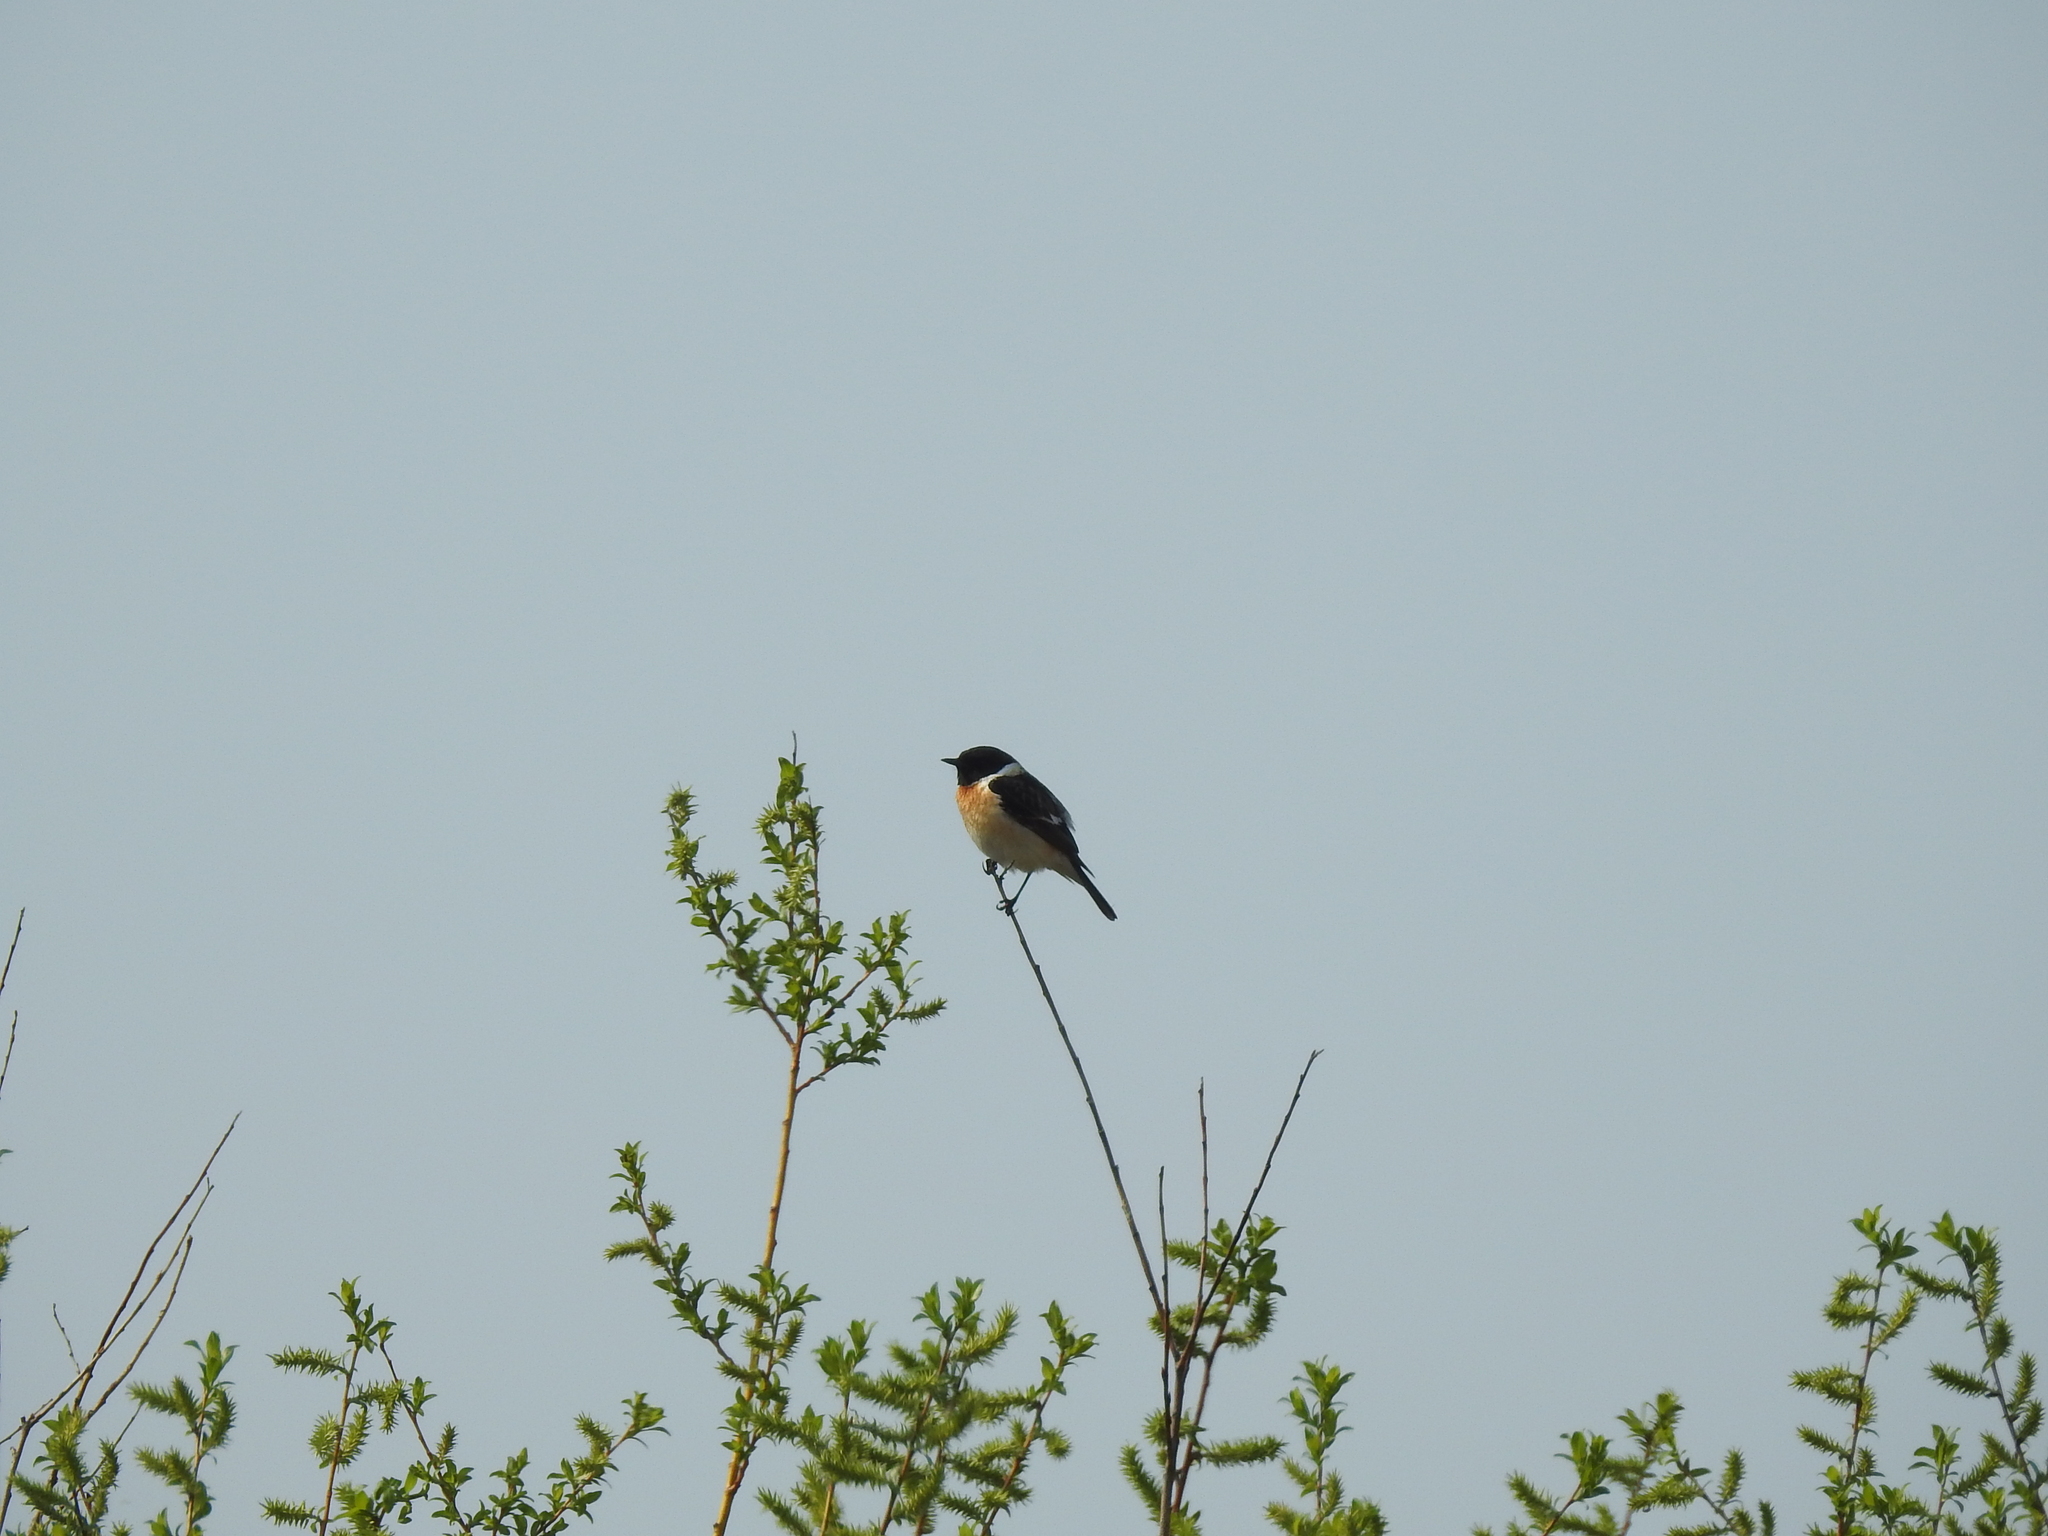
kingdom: Animalia
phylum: Chordata
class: Aves
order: Passeriformes
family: Muscicapidae
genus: Saxicola
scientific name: Saxicola maurus
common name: Siberian stonechat
